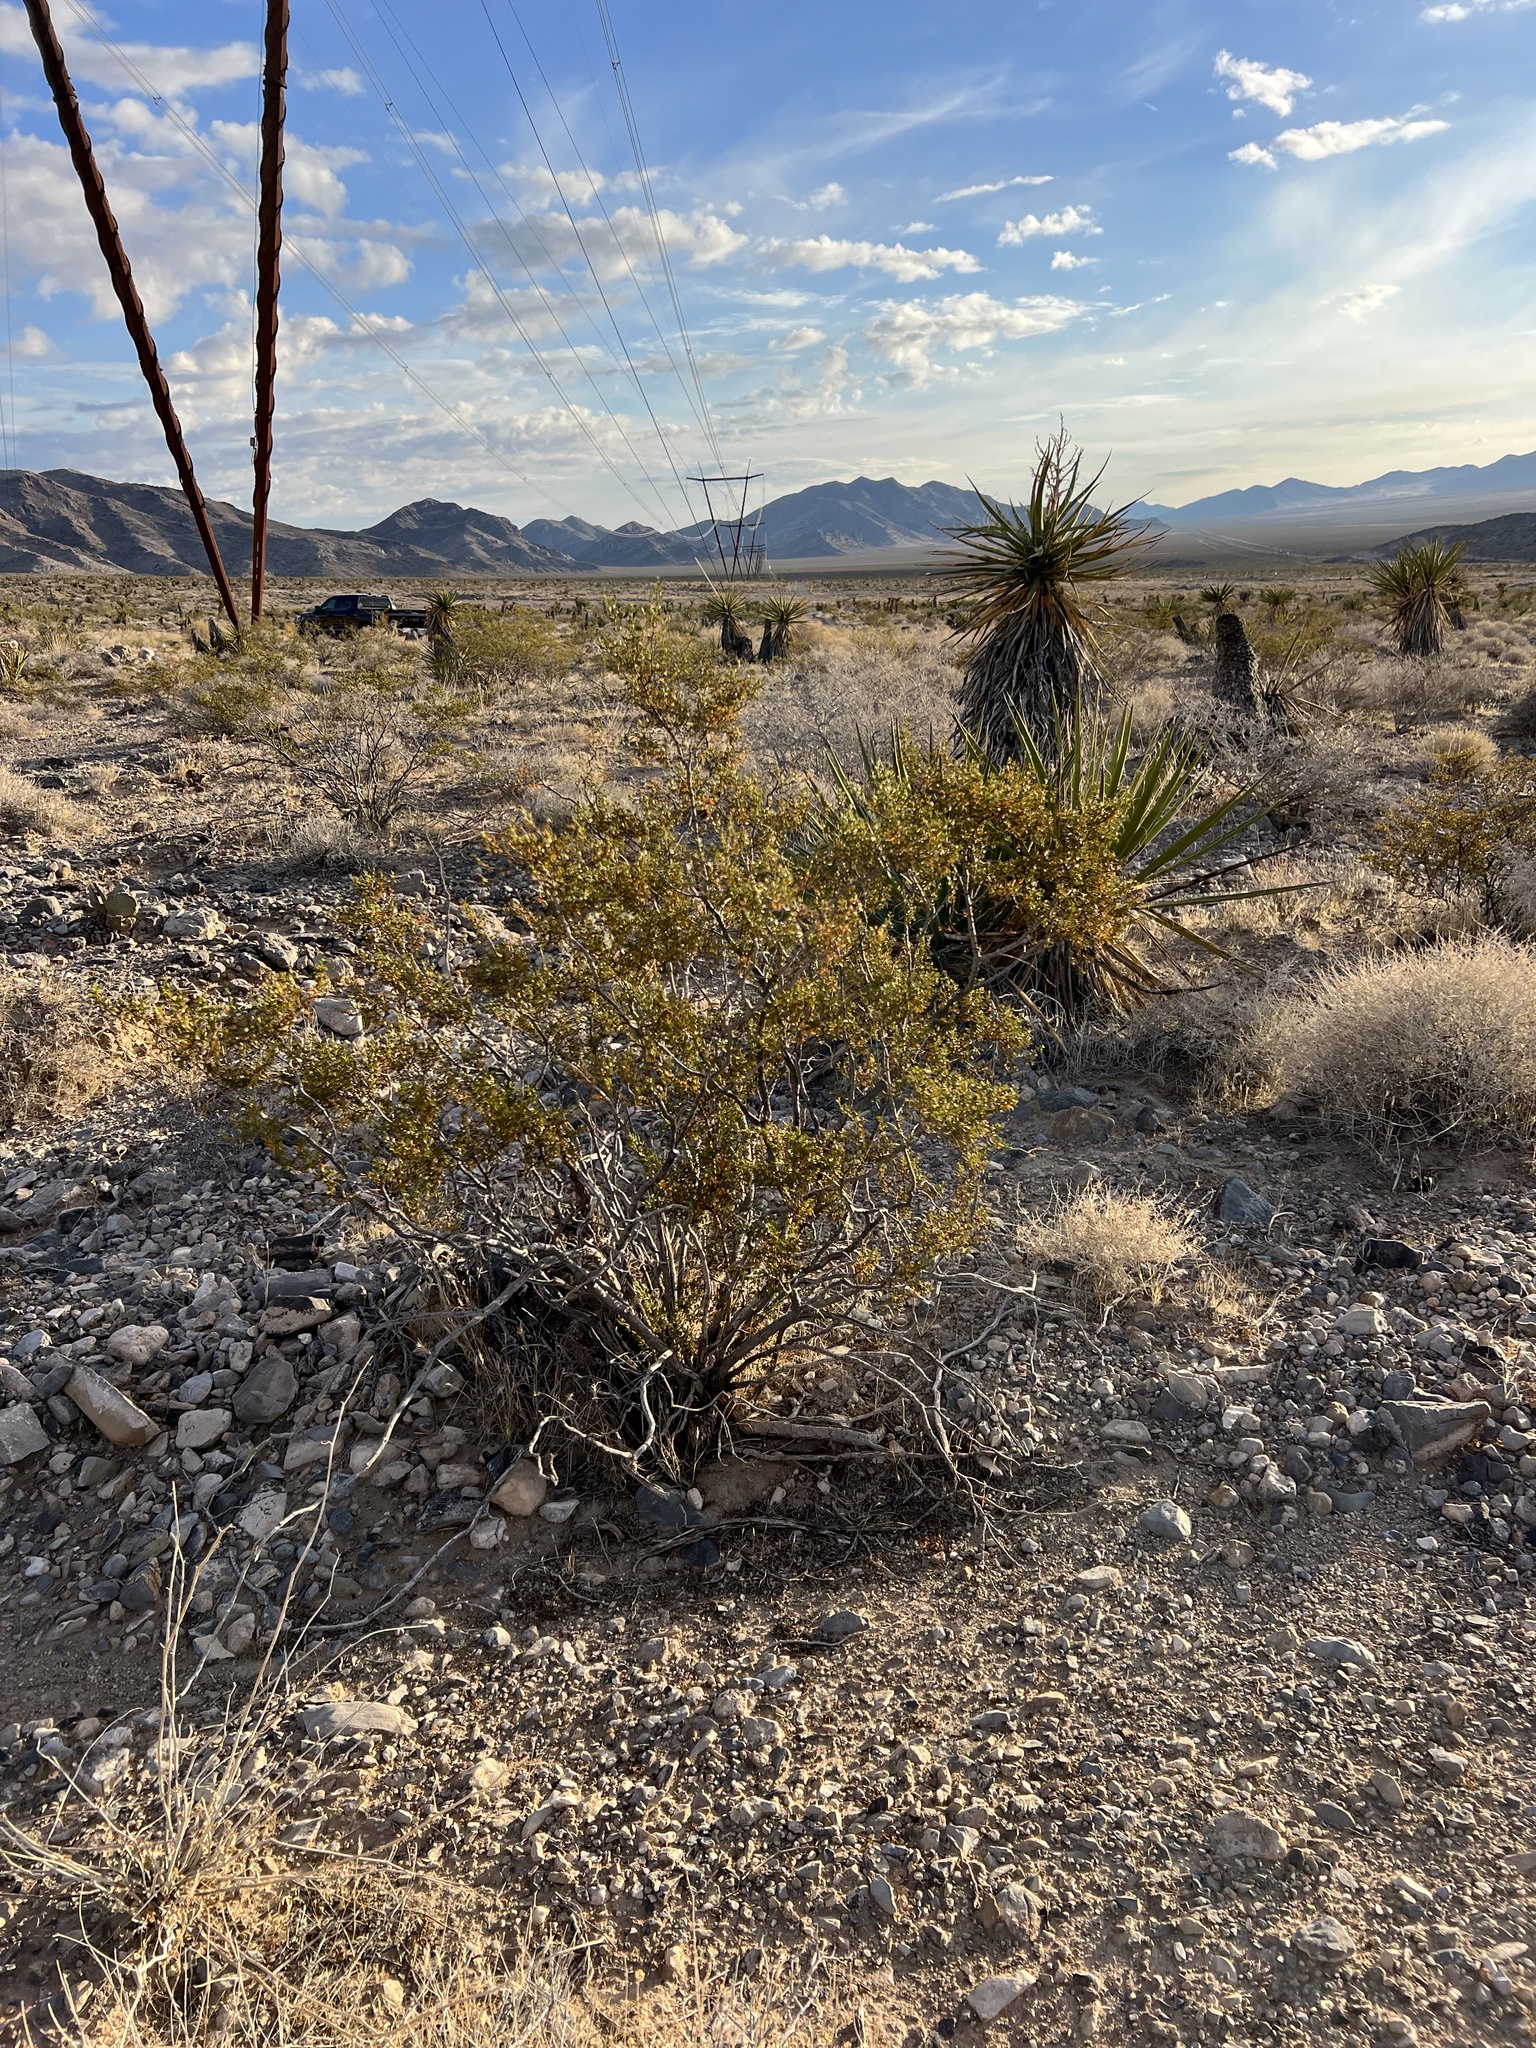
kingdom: Plantae
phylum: Tracheophyta
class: Magnoliopsida
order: Zygophyllales
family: Zygophyllaceae
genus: Larrea
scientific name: Larrea tridentata
